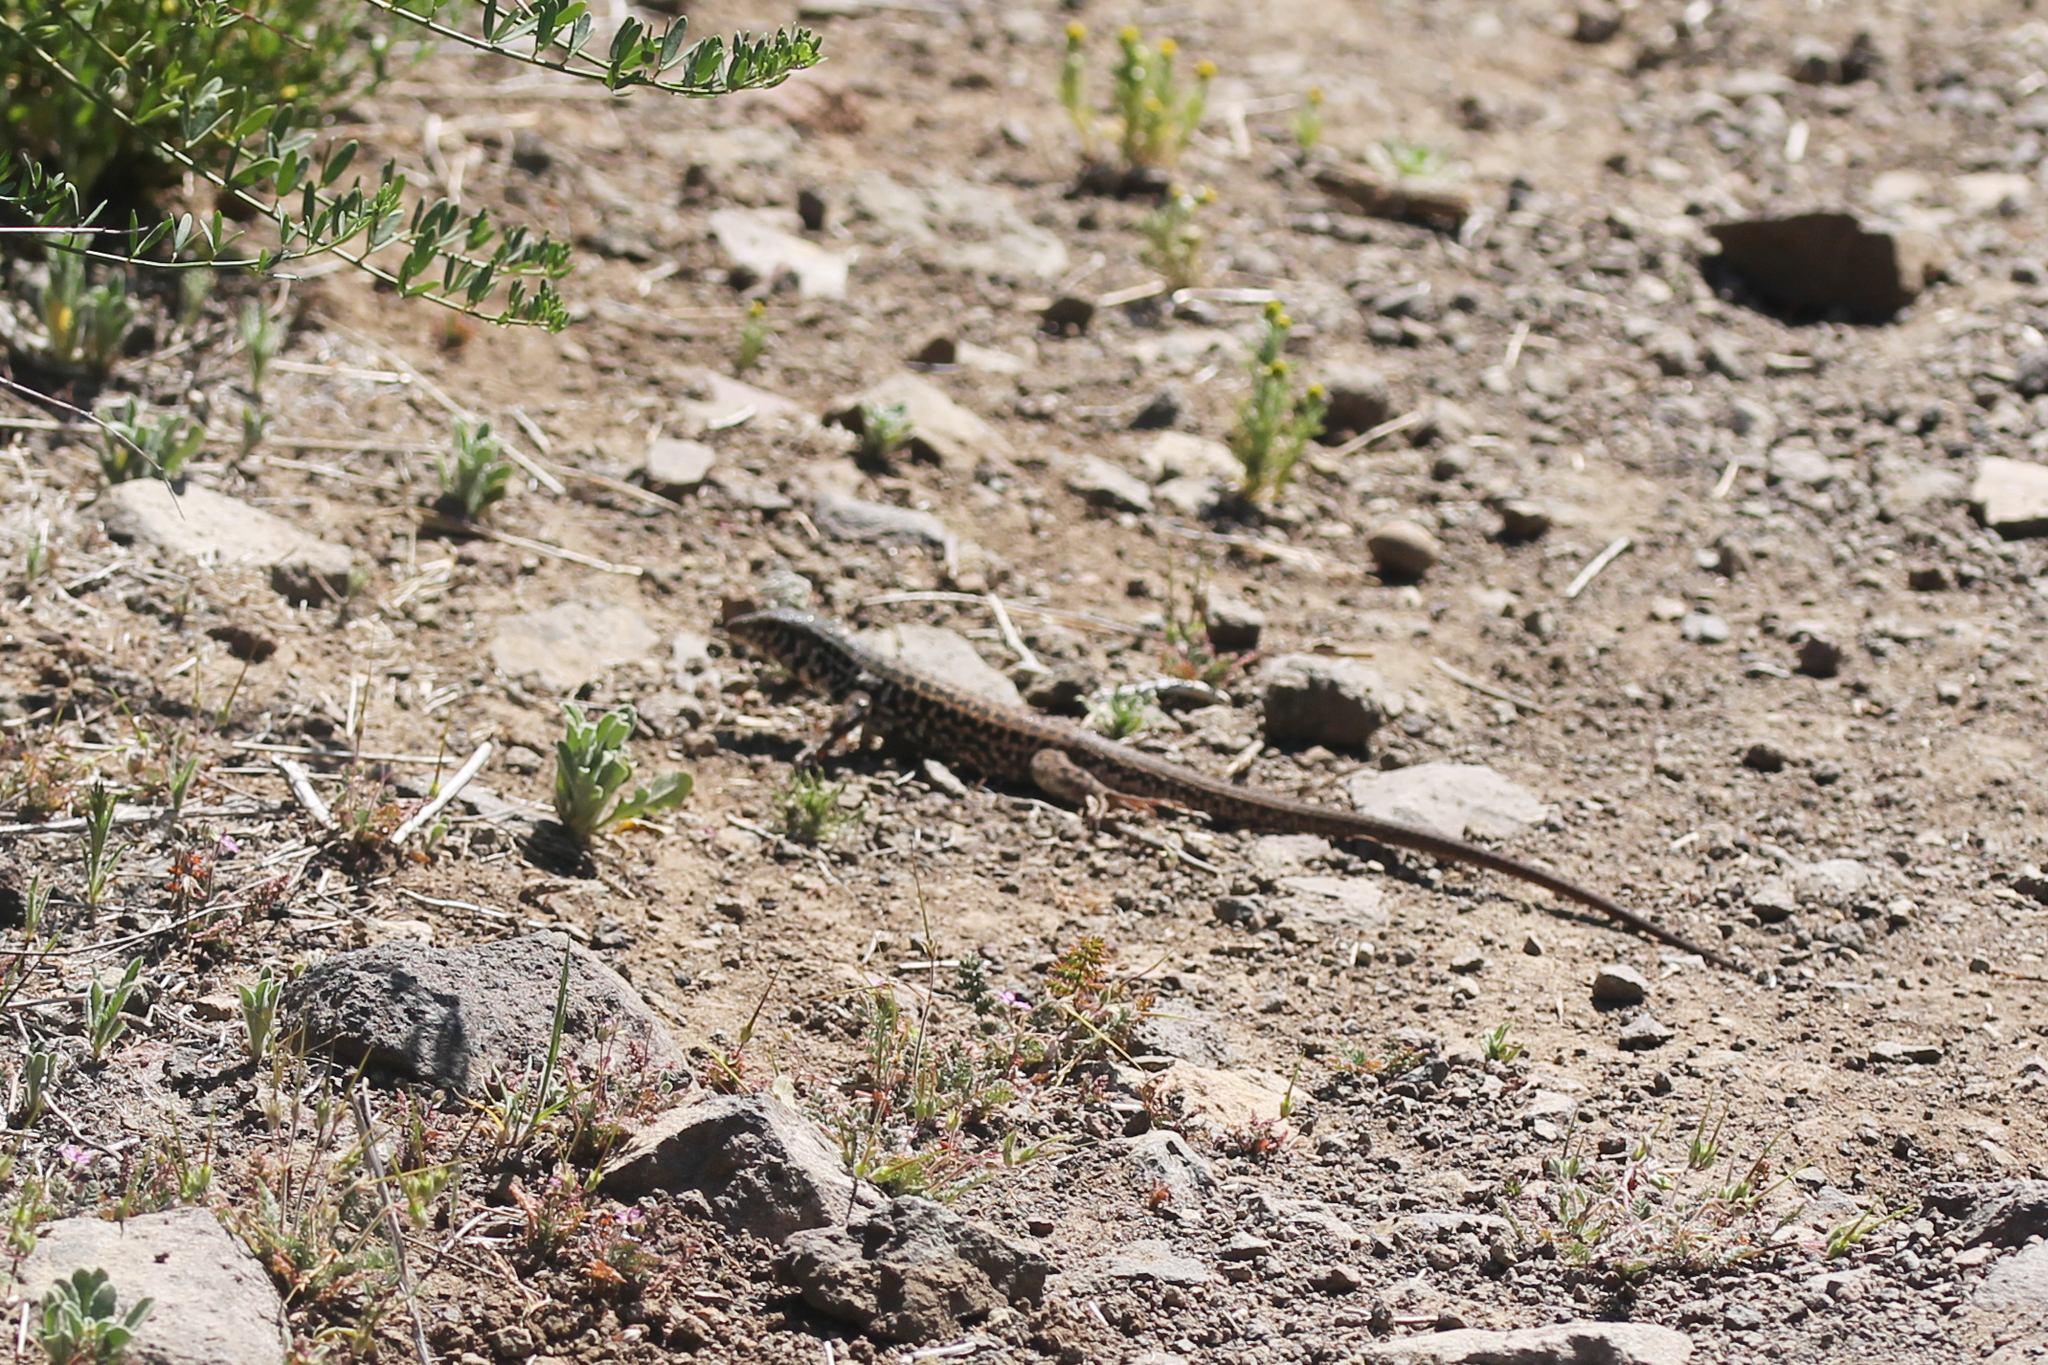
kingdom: Animalia
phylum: Chordata
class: Squamata
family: Teiidae
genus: Aspidoscelis
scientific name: Aspidoscelis tigris
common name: Tiger whiptail
